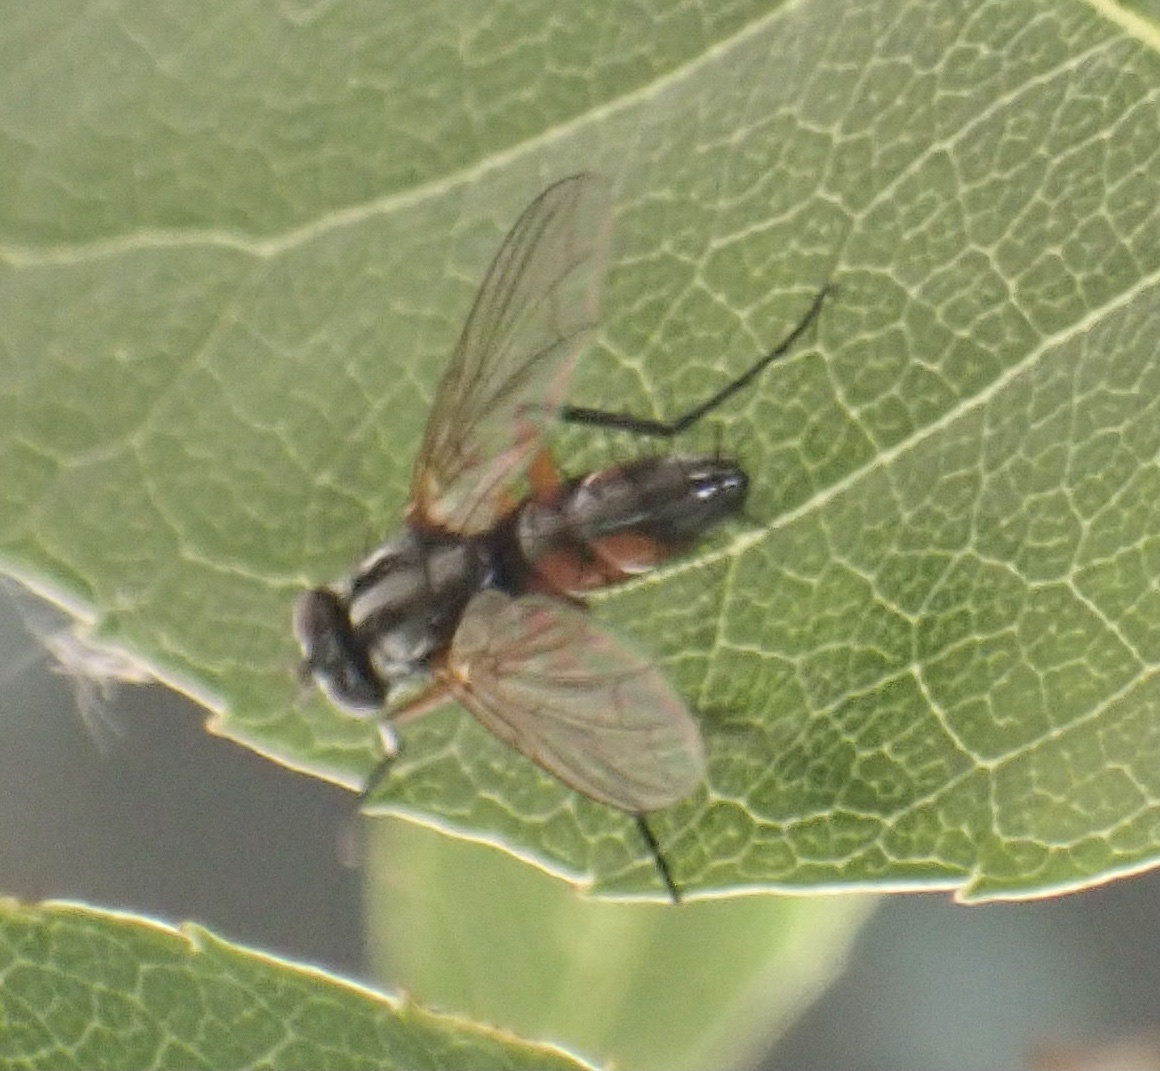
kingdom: Animalia
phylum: Arthropoda
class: Insecta
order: Diptera
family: Tachinidae
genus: Mintho
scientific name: Mintho rufiventris
